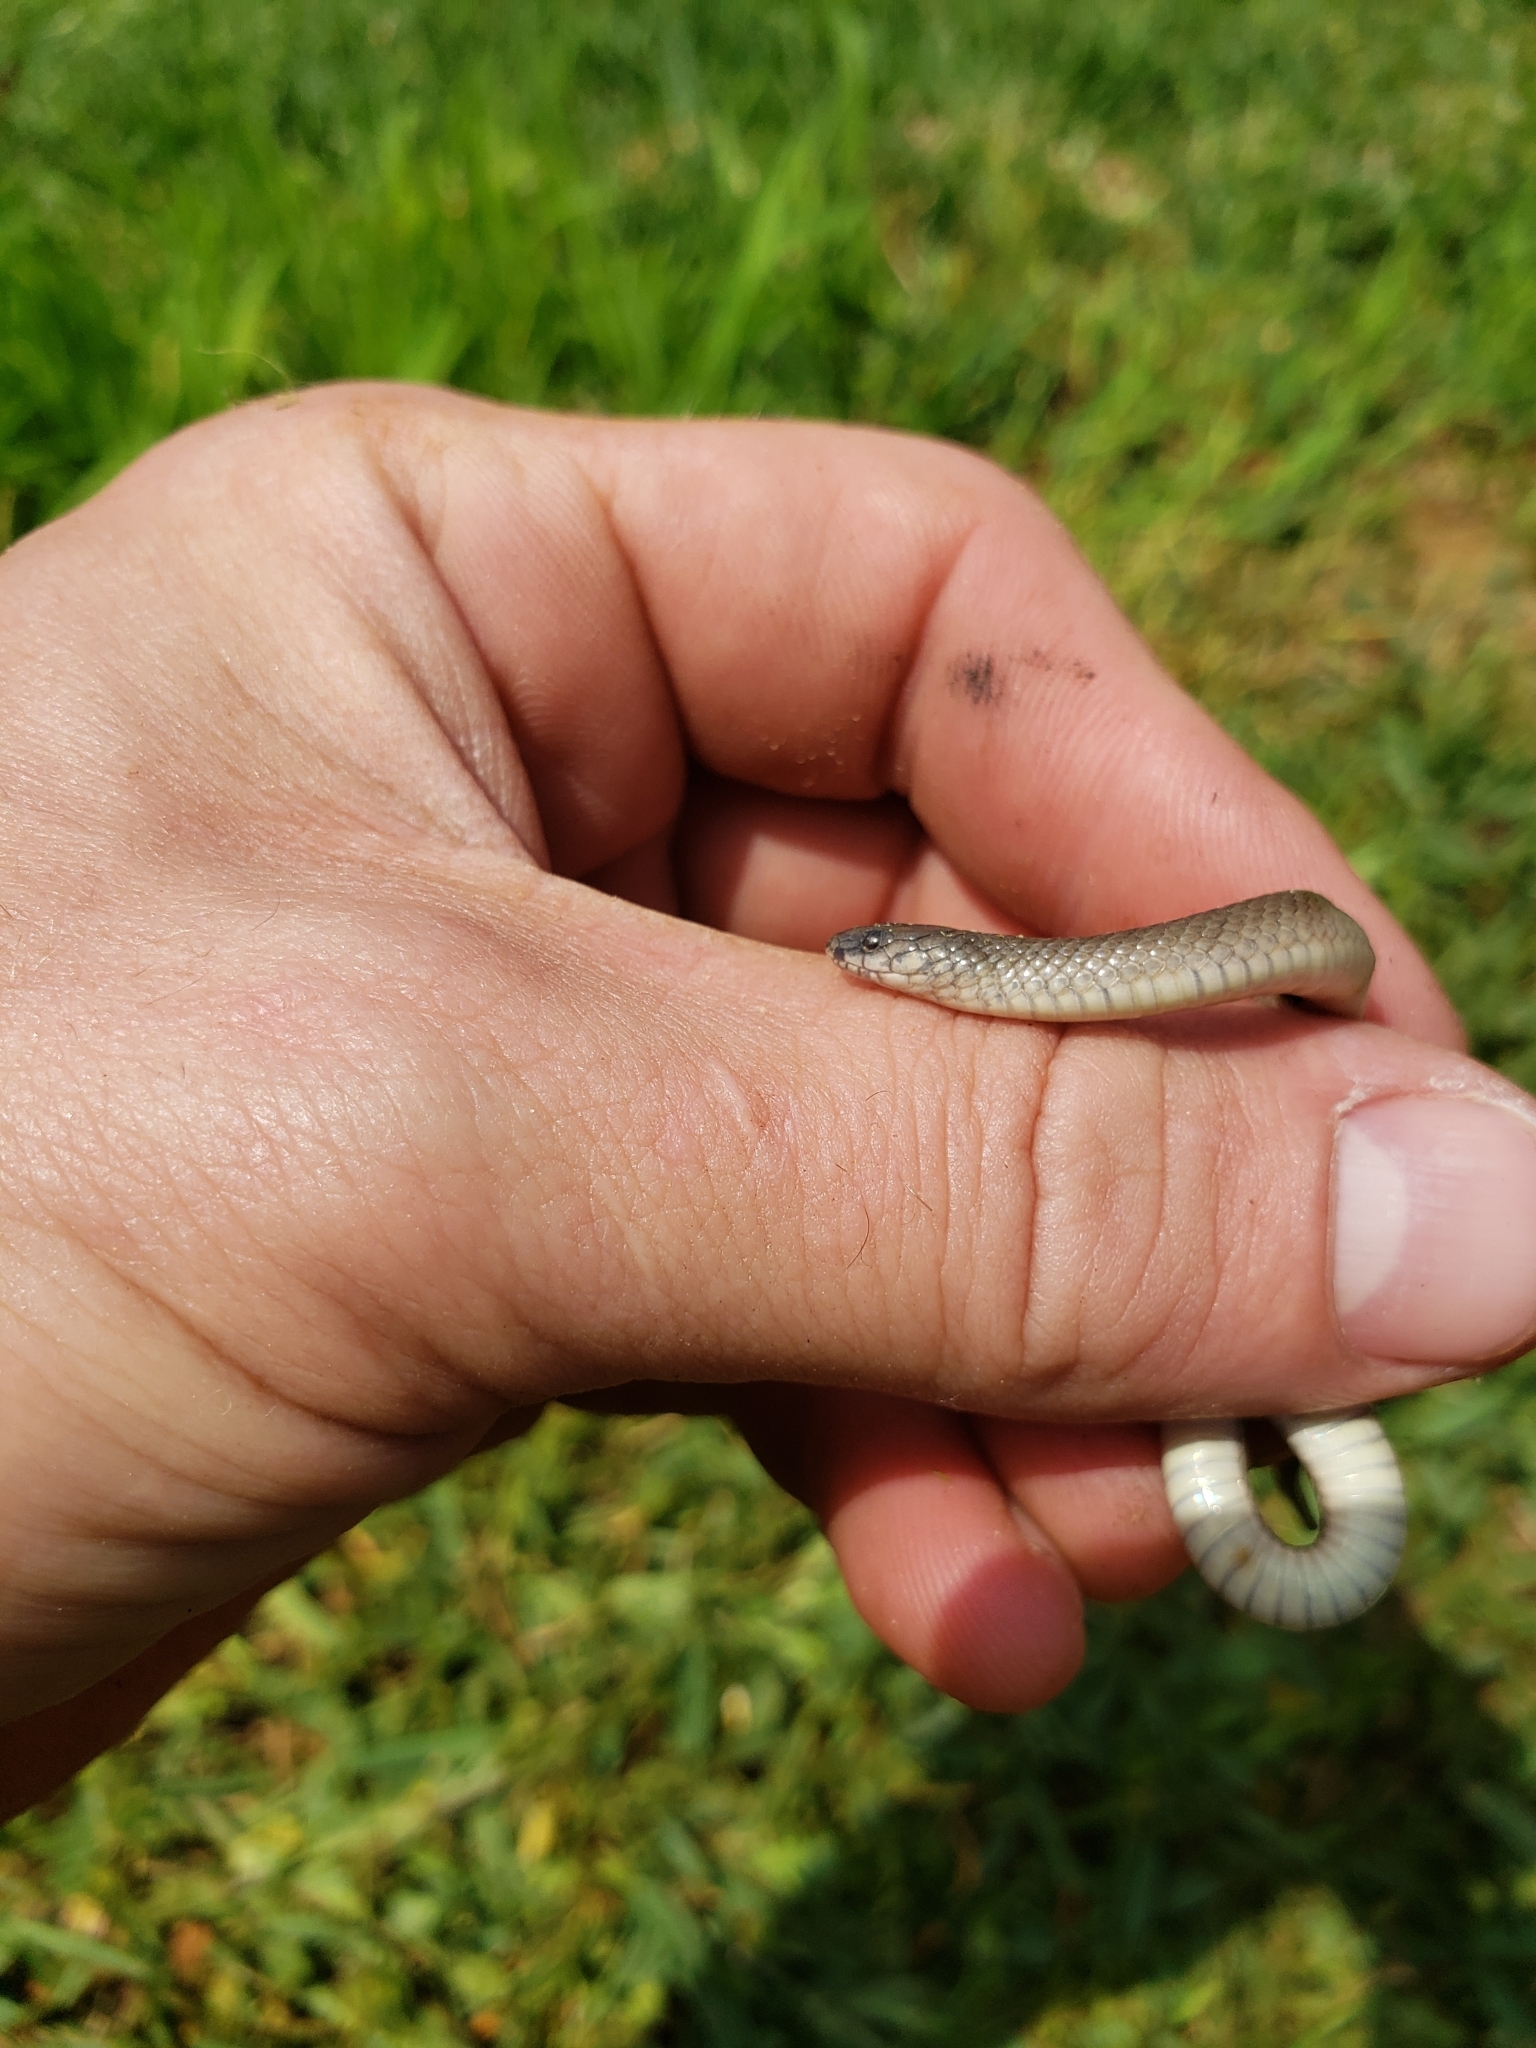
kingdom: Animalia
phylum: Chordata
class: Squamata
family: Colubridae
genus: Haldea
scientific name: Haldea striatula
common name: Rough earth snake
